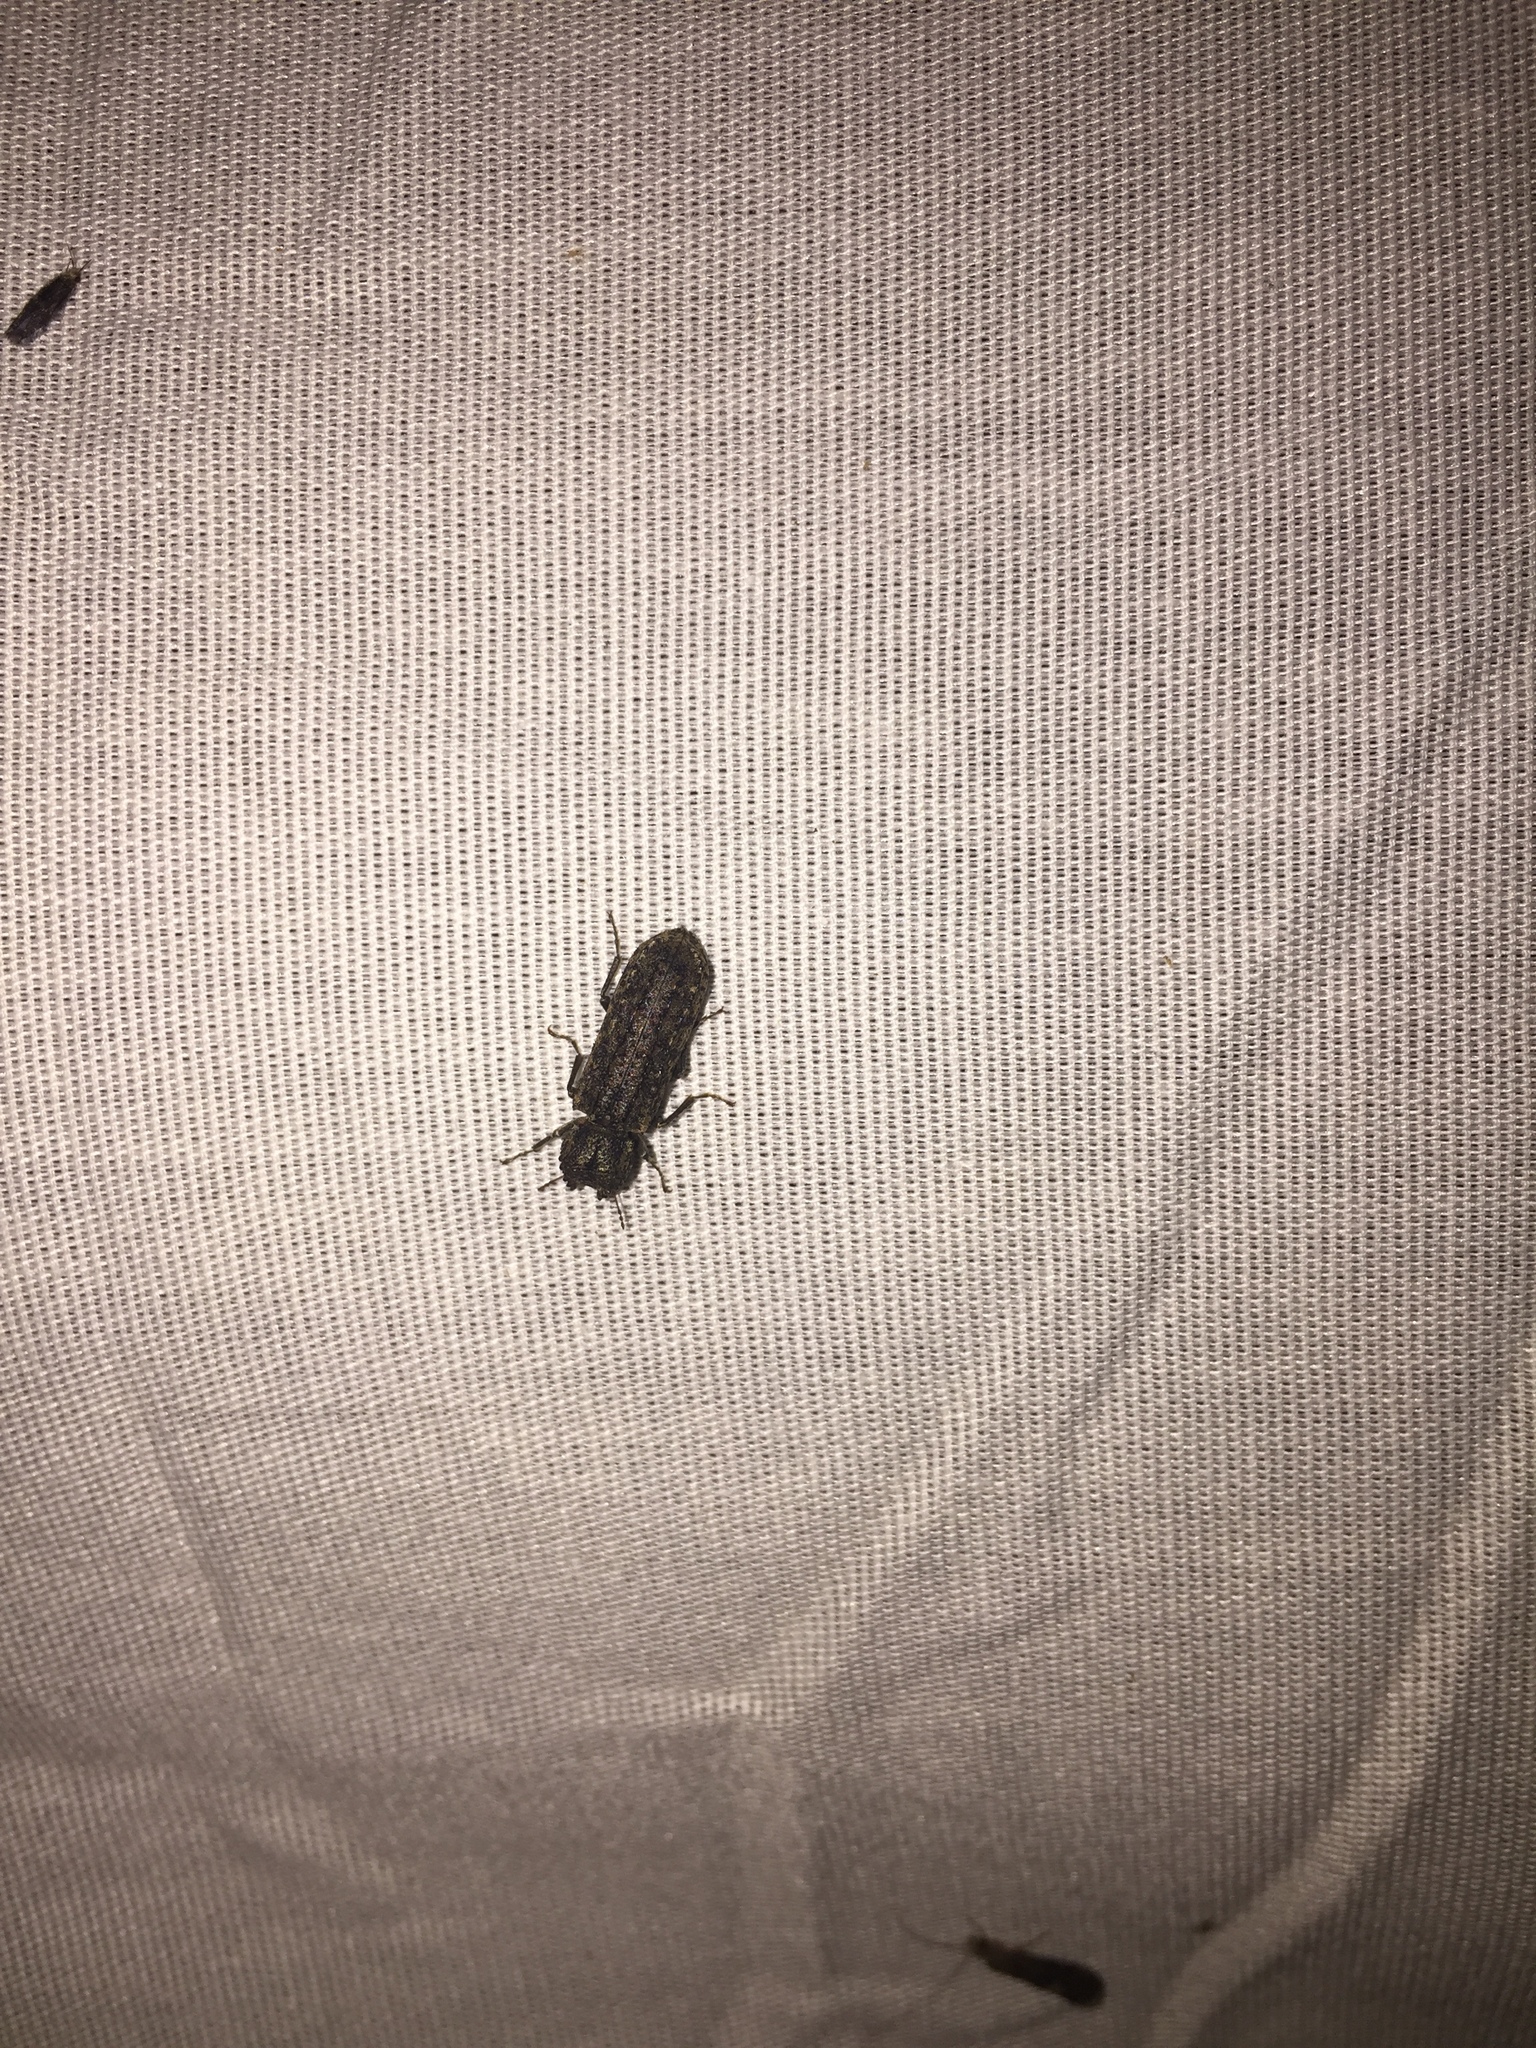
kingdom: Animalia
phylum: Arthropoda
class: Insecta
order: Coleoptera
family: Bostrichidae
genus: Lichenophanes
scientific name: Lichenophanes bicornis
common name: Two-horned powder-post beetle
